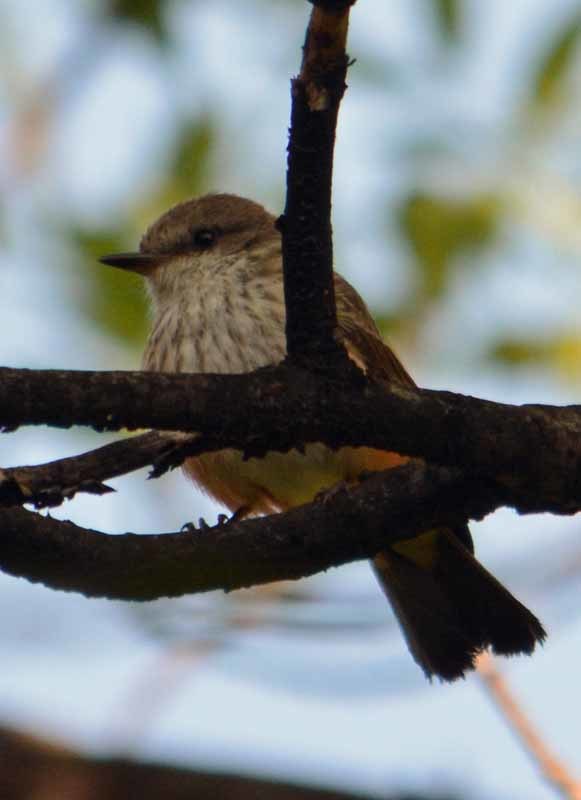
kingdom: Animalia
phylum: Chordata
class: Aves
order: Passeriformes
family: Tyrannidae
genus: Pyrocephalus
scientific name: Pyrocephalus rubinus
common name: Vermilion flycatcher
